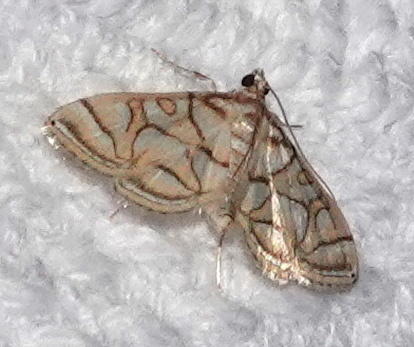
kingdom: Animalia
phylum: Arthropoda
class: Insecta
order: Lepidoptera
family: Crambidae
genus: Pseudopyrausta
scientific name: Pseudopyrausta santatalis
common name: Moth
